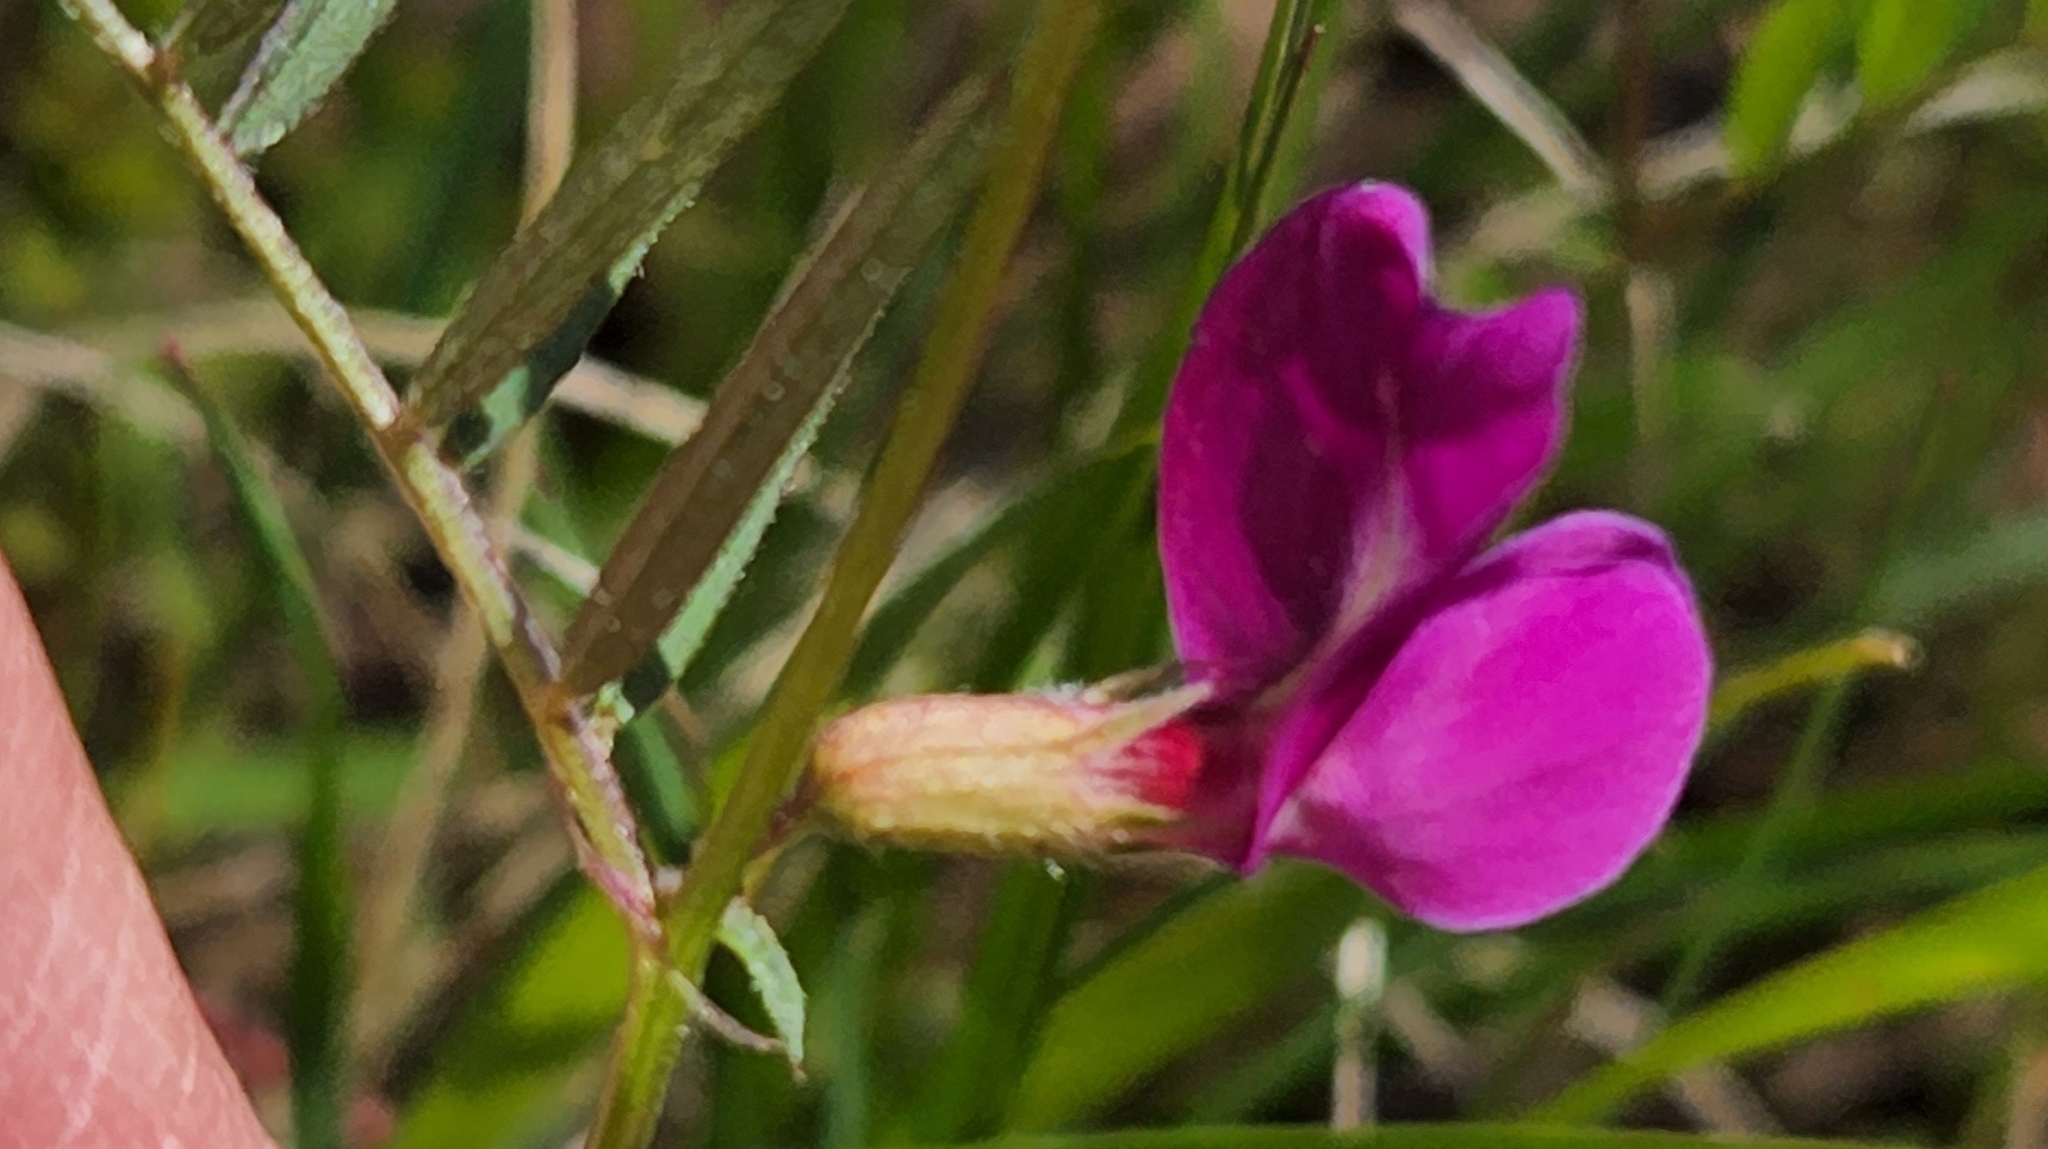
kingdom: Plantae
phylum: Tracheophyta
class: Magnoliopsida
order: Fabales
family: Fabaceae
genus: Vicia
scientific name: Vicia sativa
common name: Garden vetch
